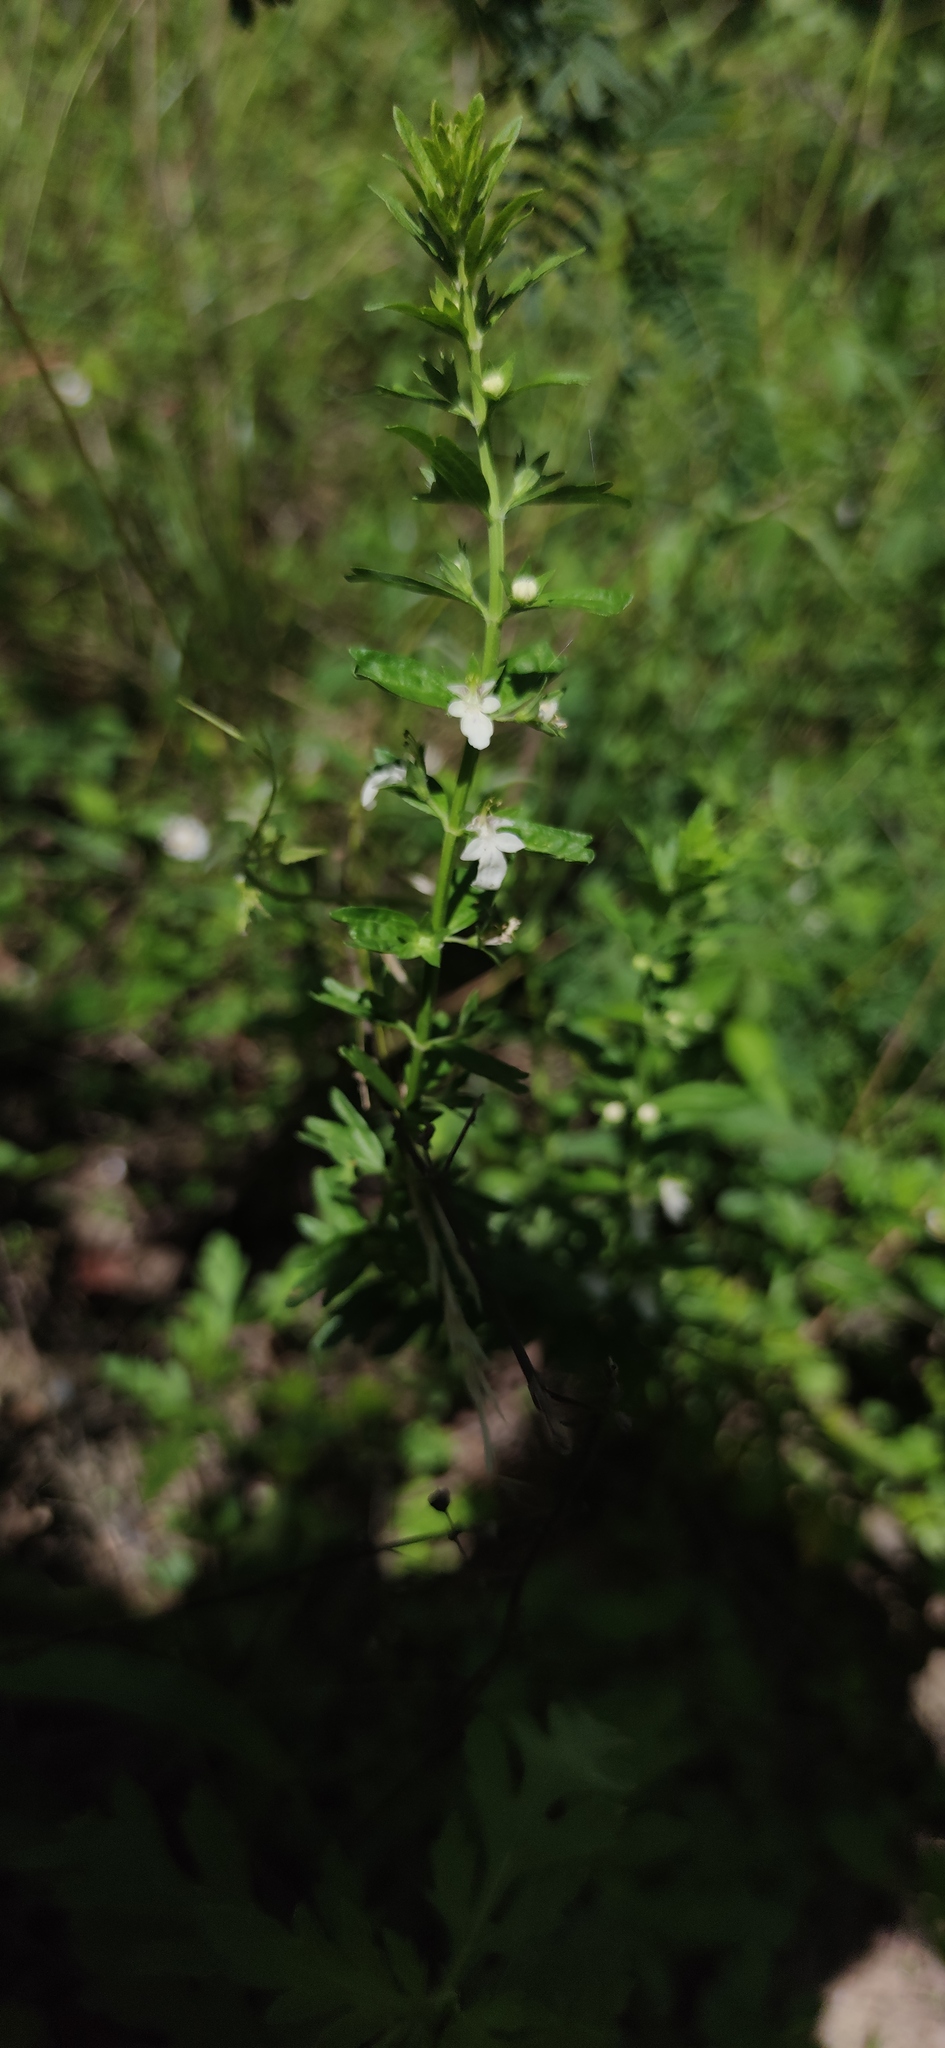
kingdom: Plantae
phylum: Tracheophyta
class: Magnoliopsida
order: Lamiales
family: Lamiaceae
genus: Teucrium
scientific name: Teucrium cubense
